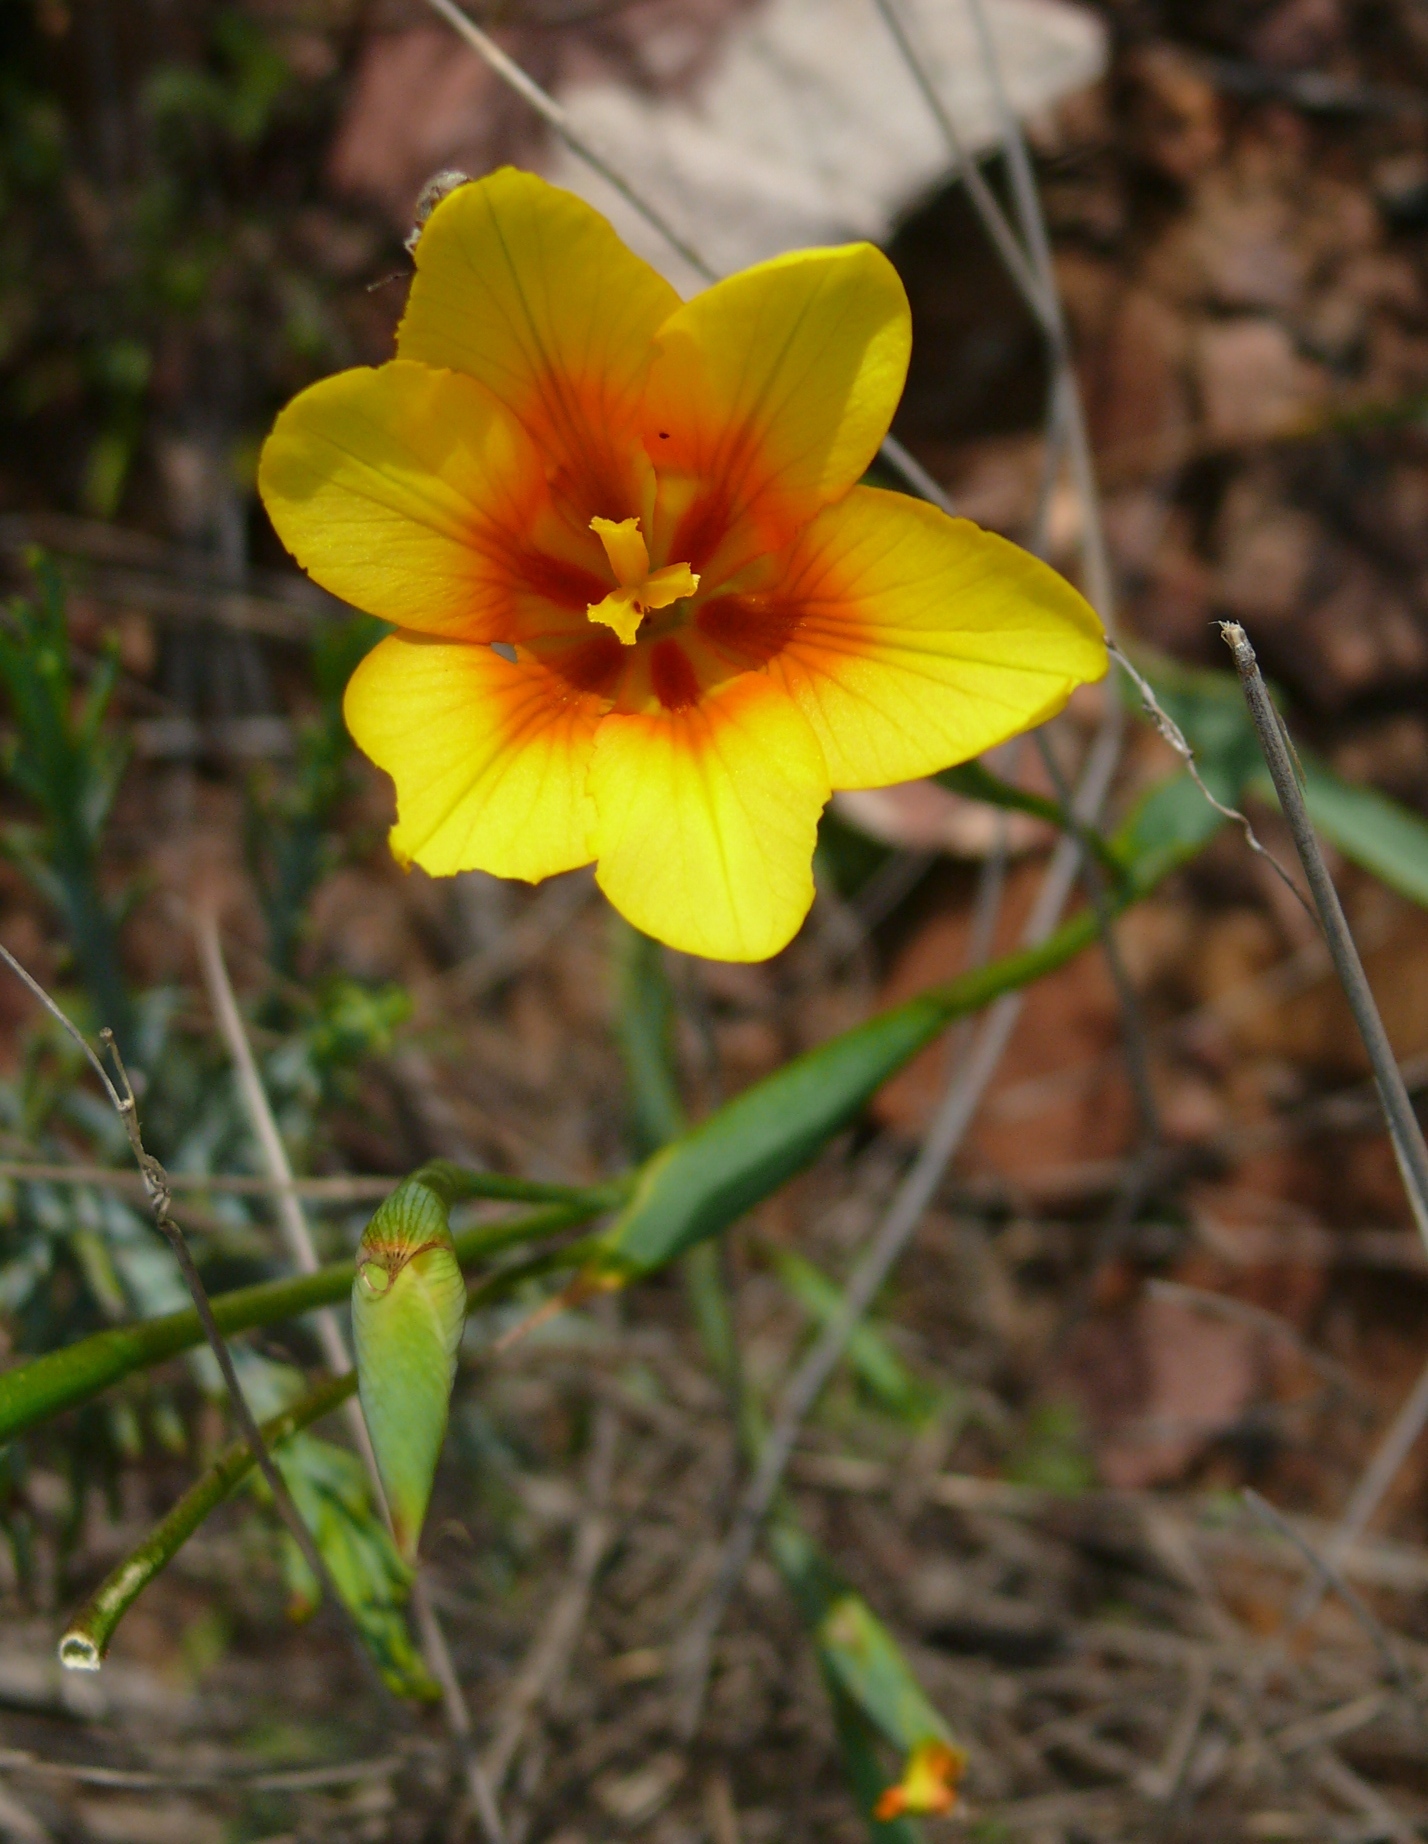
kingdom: Plantae
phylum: Tracheophyta
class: Liliopsida
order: Asparagales
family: Iridaceae
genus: Moraea
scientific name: Moraea ochroleuca
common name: Red tulp
